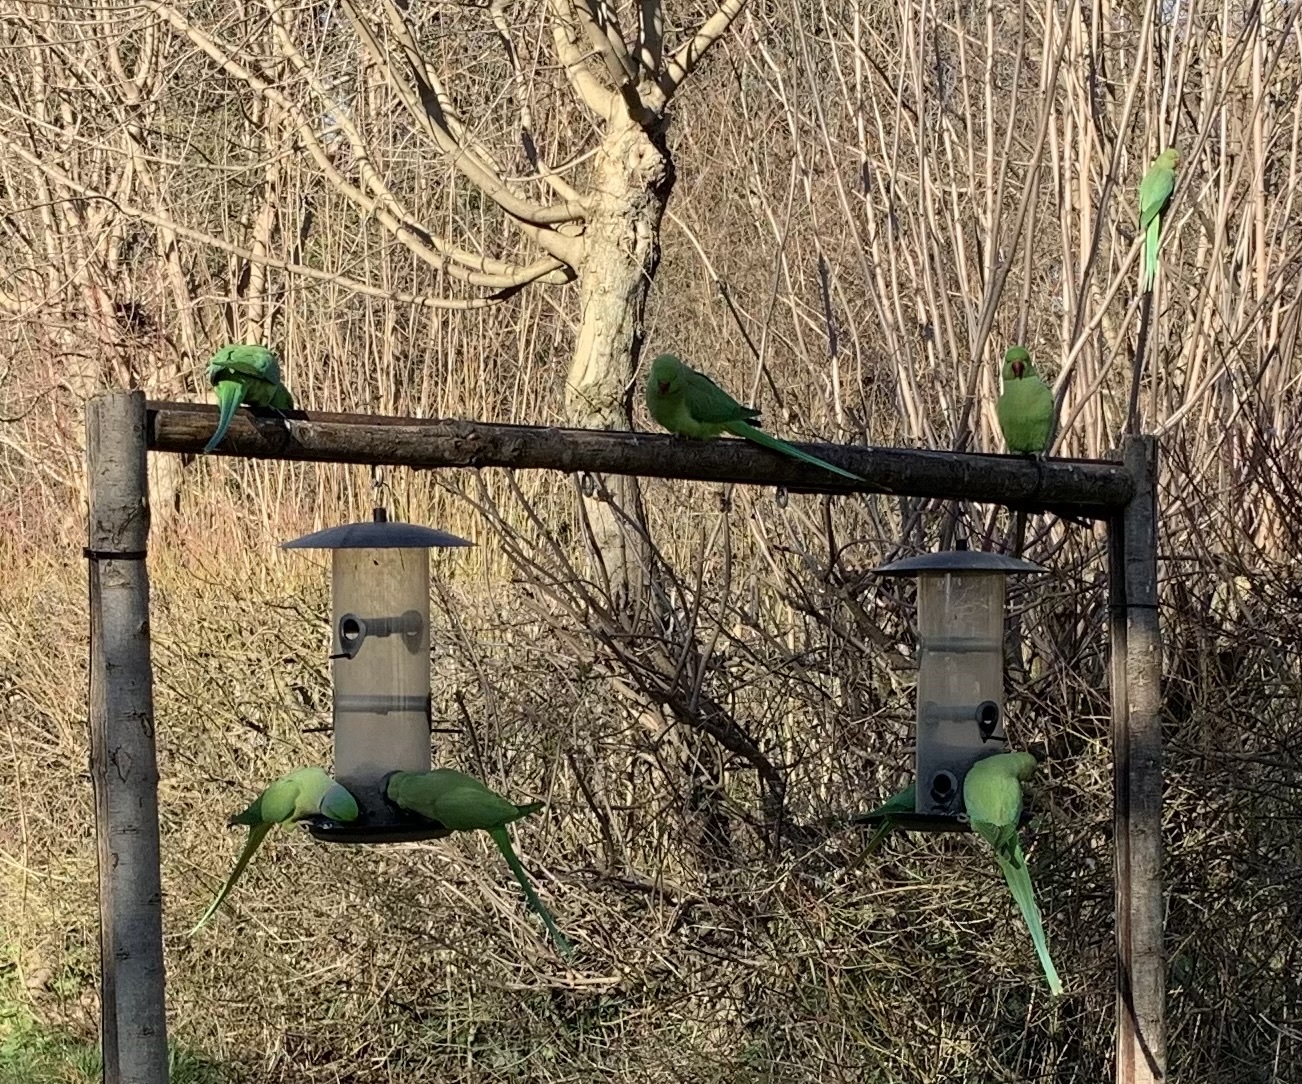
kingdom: Animalia
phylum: Chordata
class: Aves
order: Psittaciformes
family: Psittacidae
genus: Psittacula
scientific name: Psittacula krameri
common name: Rose-ringed parakeet
